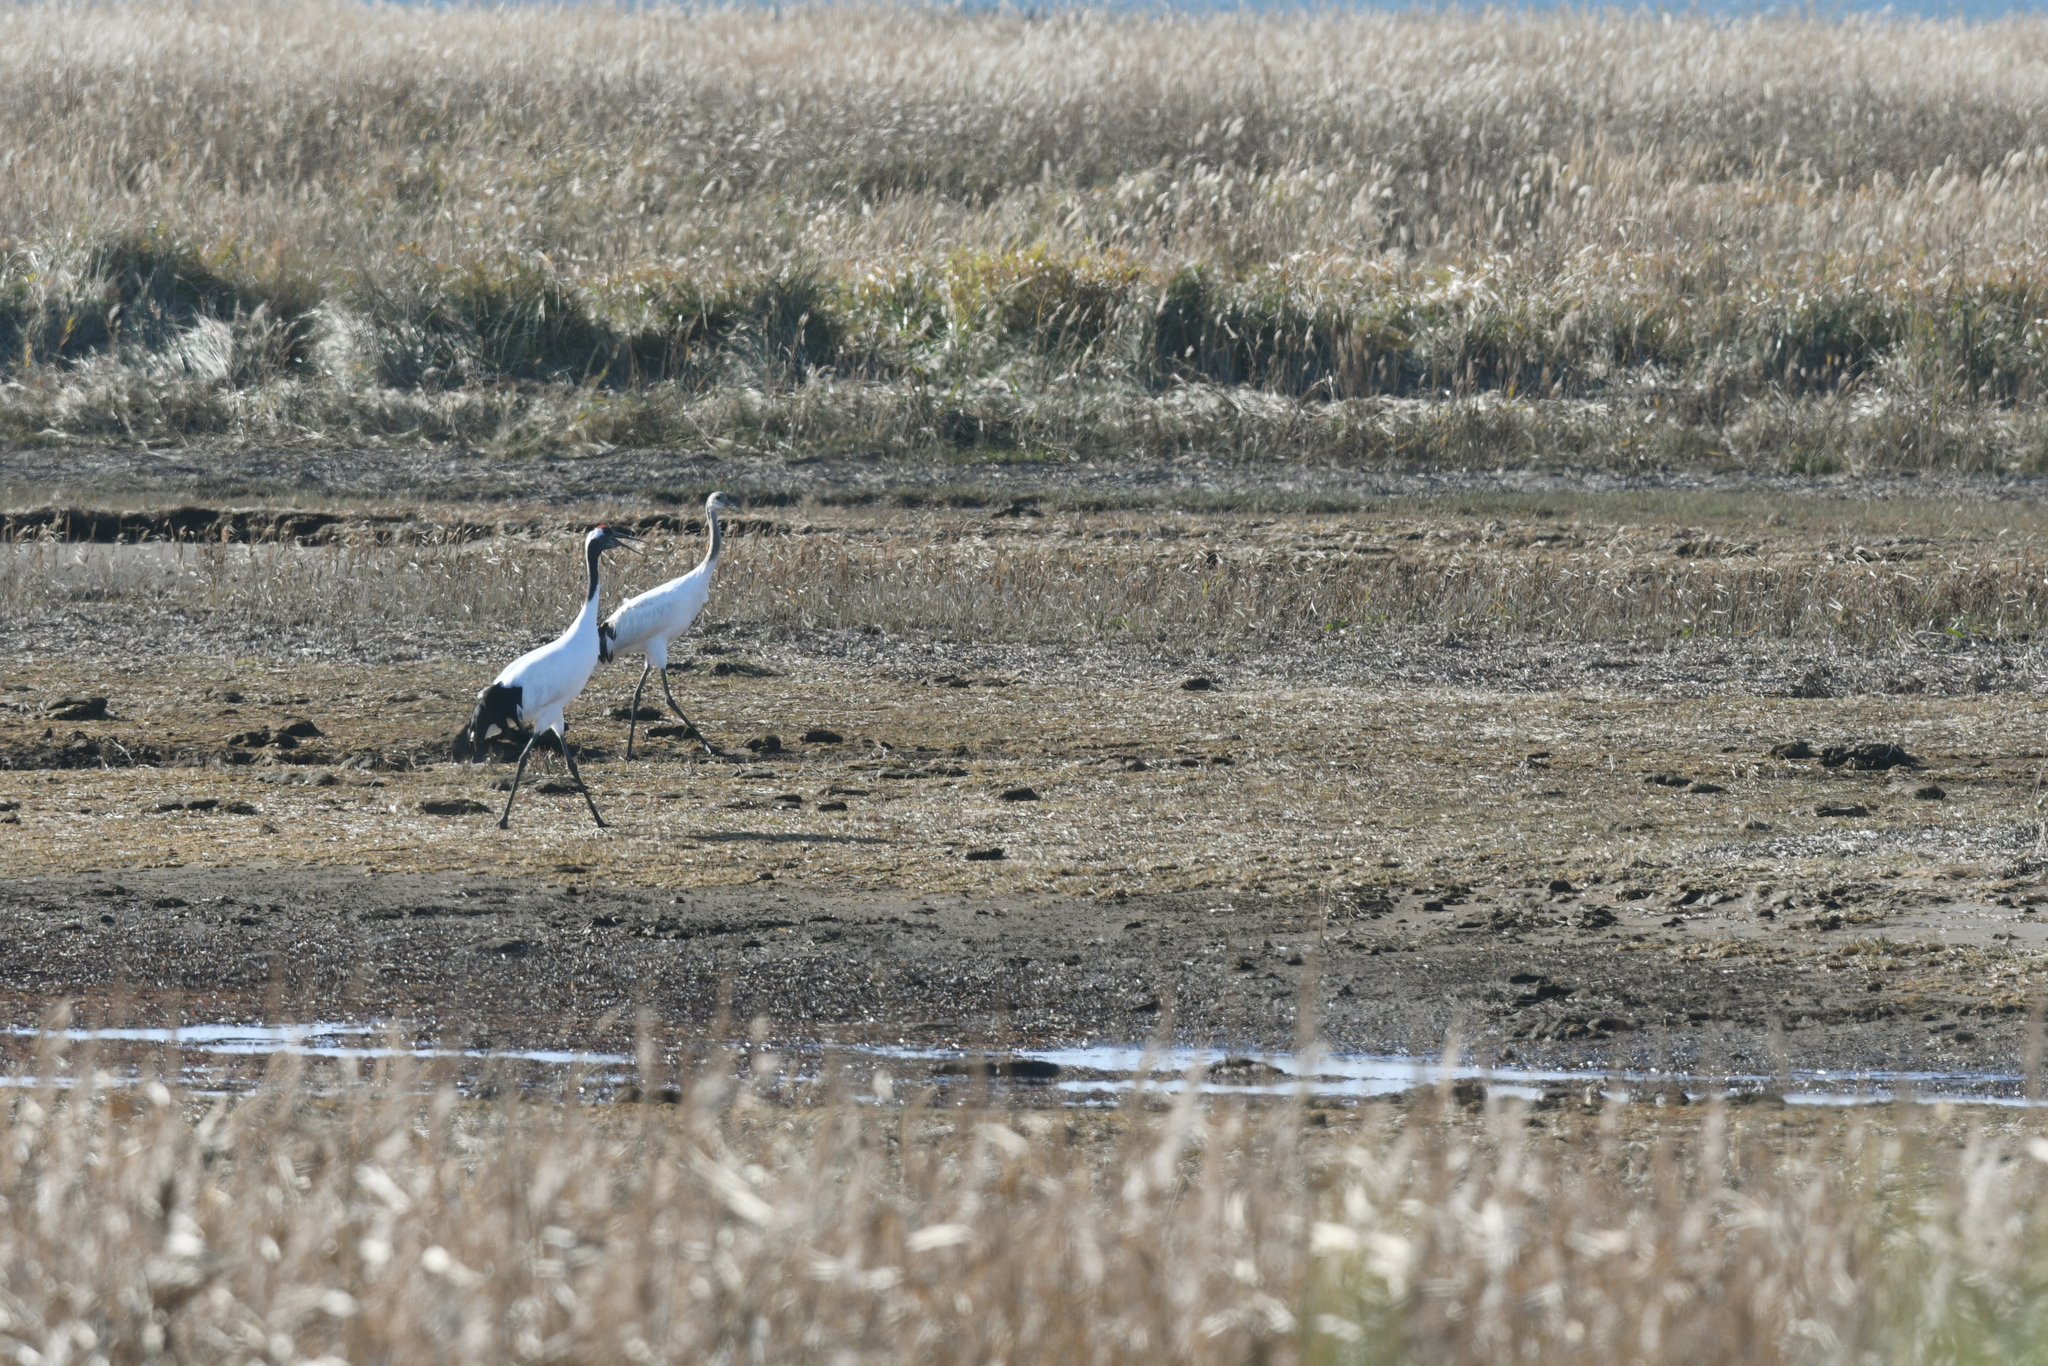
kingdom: Animalia
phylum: Chordata
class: Aves
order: Gruiformes
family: Gruidae
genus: Grus
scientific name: Grus japonensis
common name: Red-crowned crane
